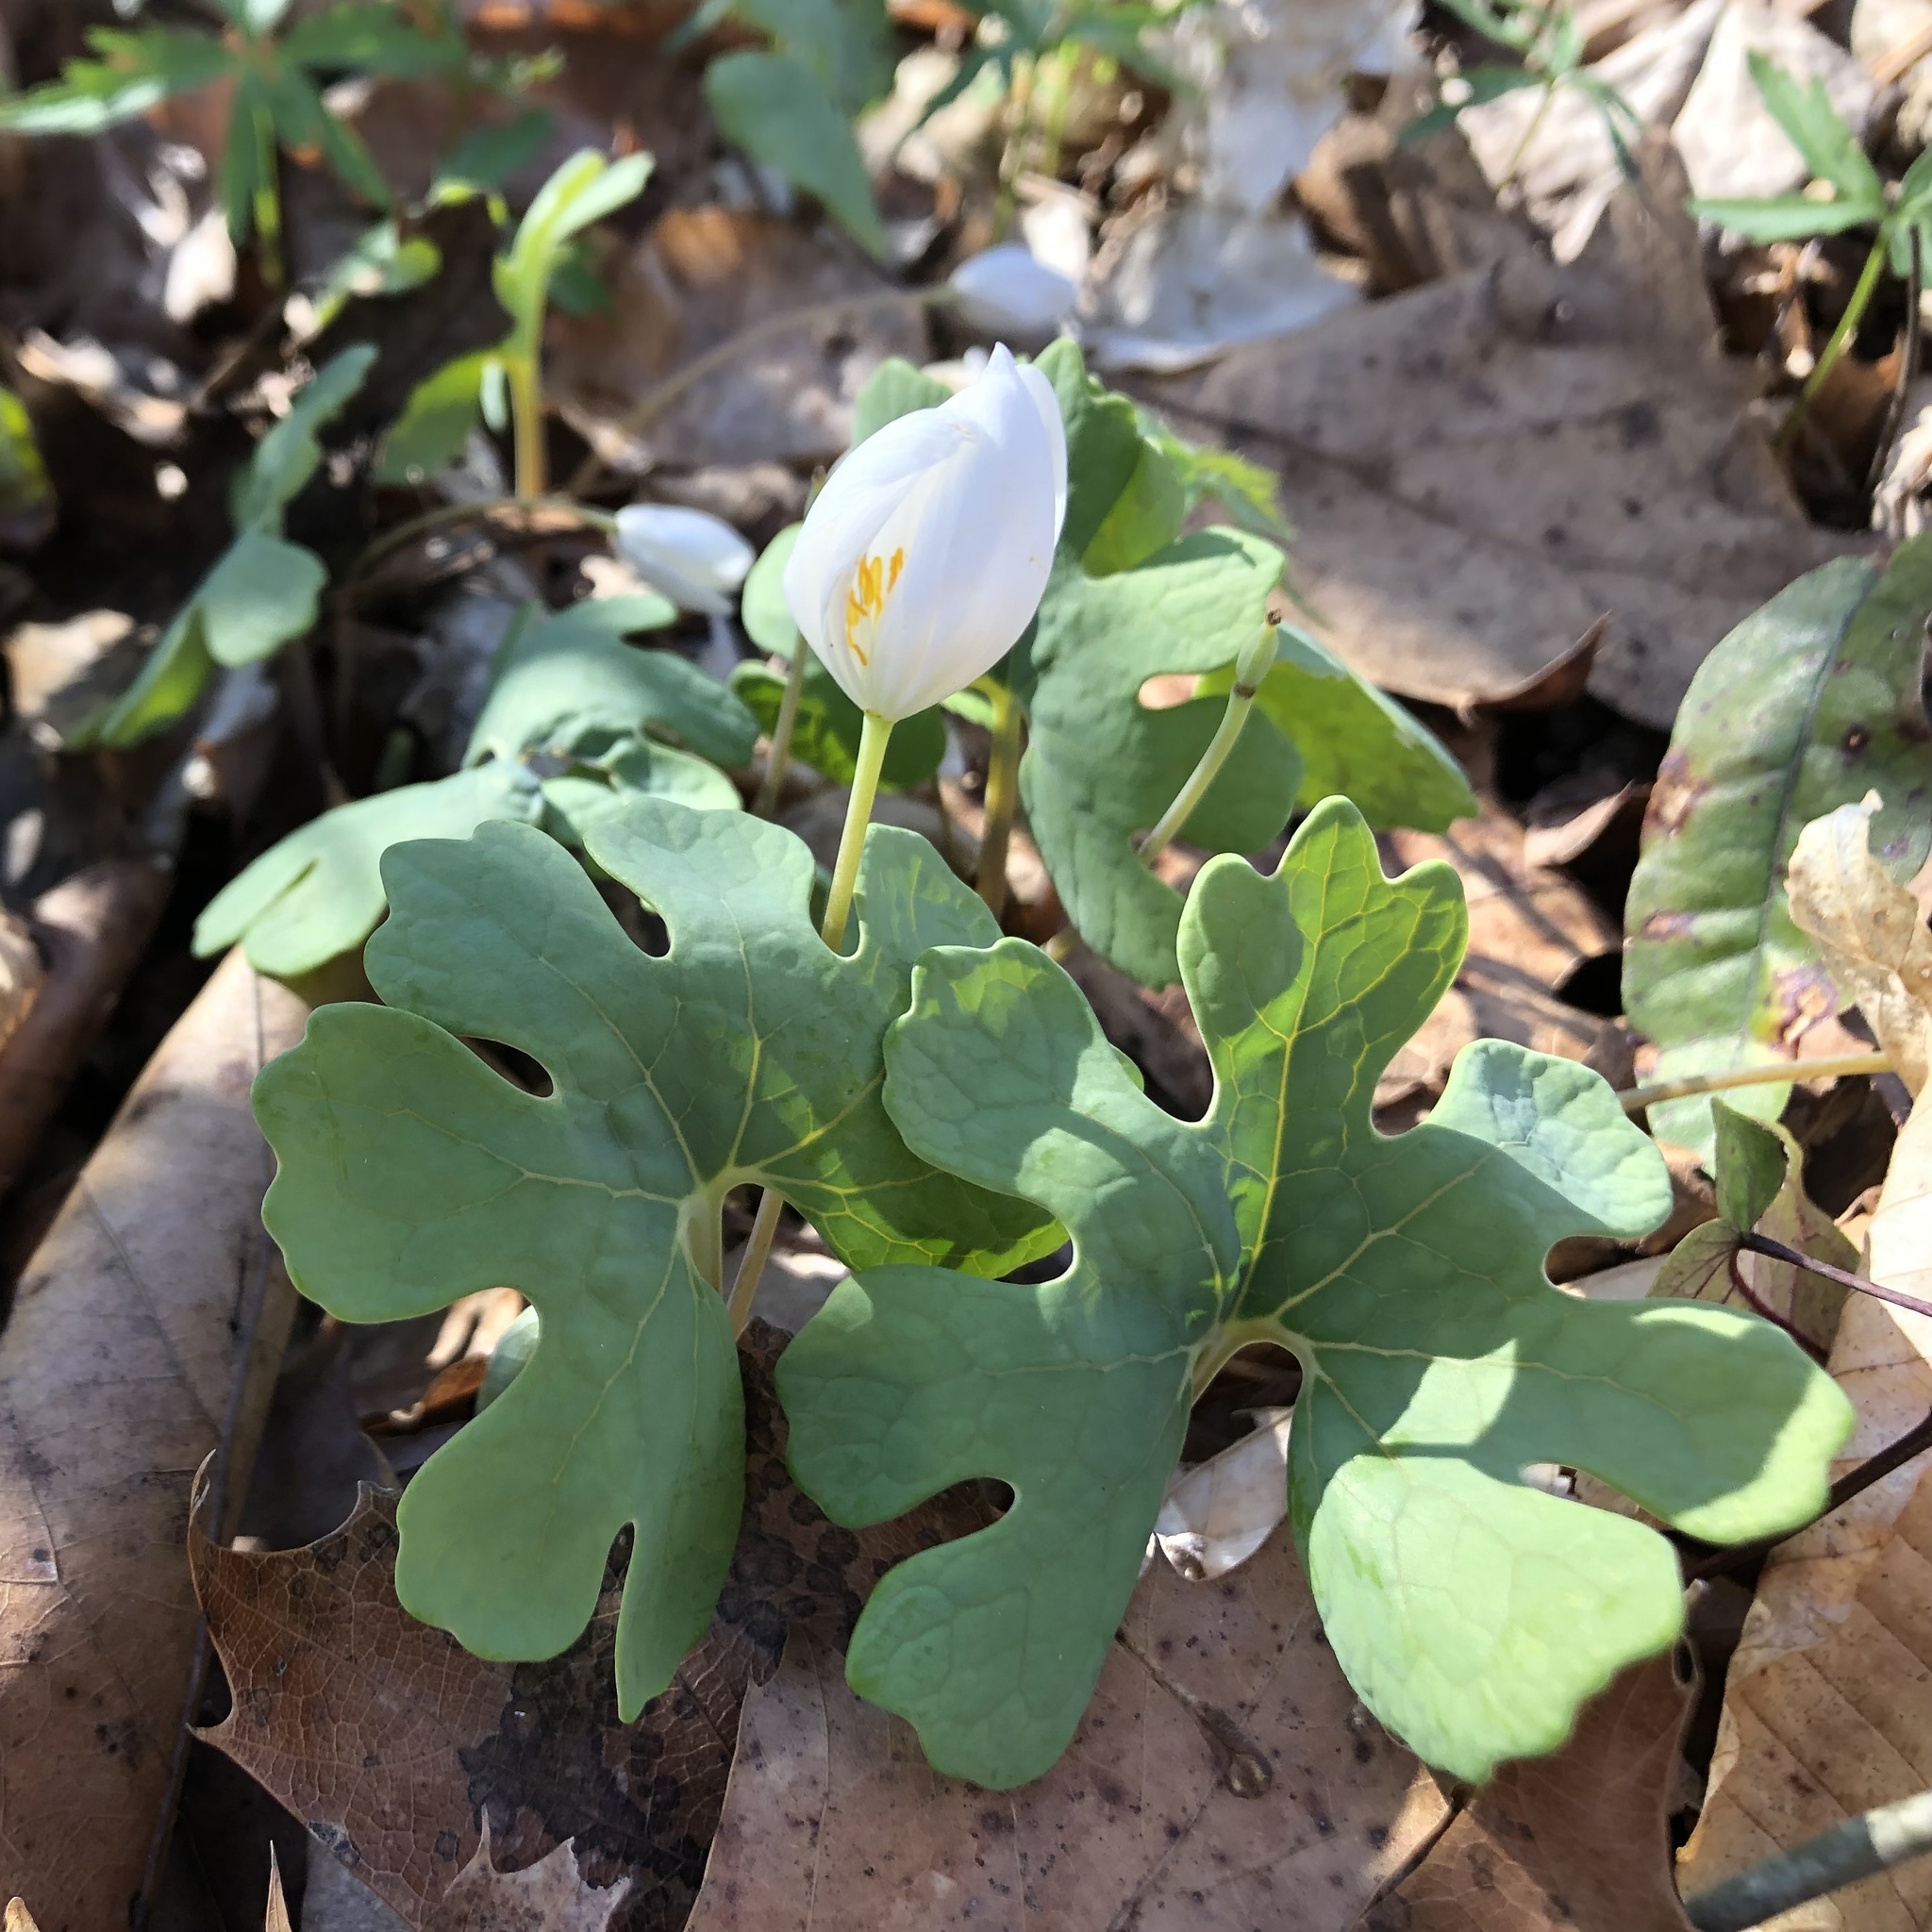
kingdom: Plantae
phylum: Tracheophyta
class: Magnoliopsida
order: Ranunculales
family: Papaveraceae
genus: Sanguinaria
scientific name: Sanguinaria canadensis
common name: Bloodroot
